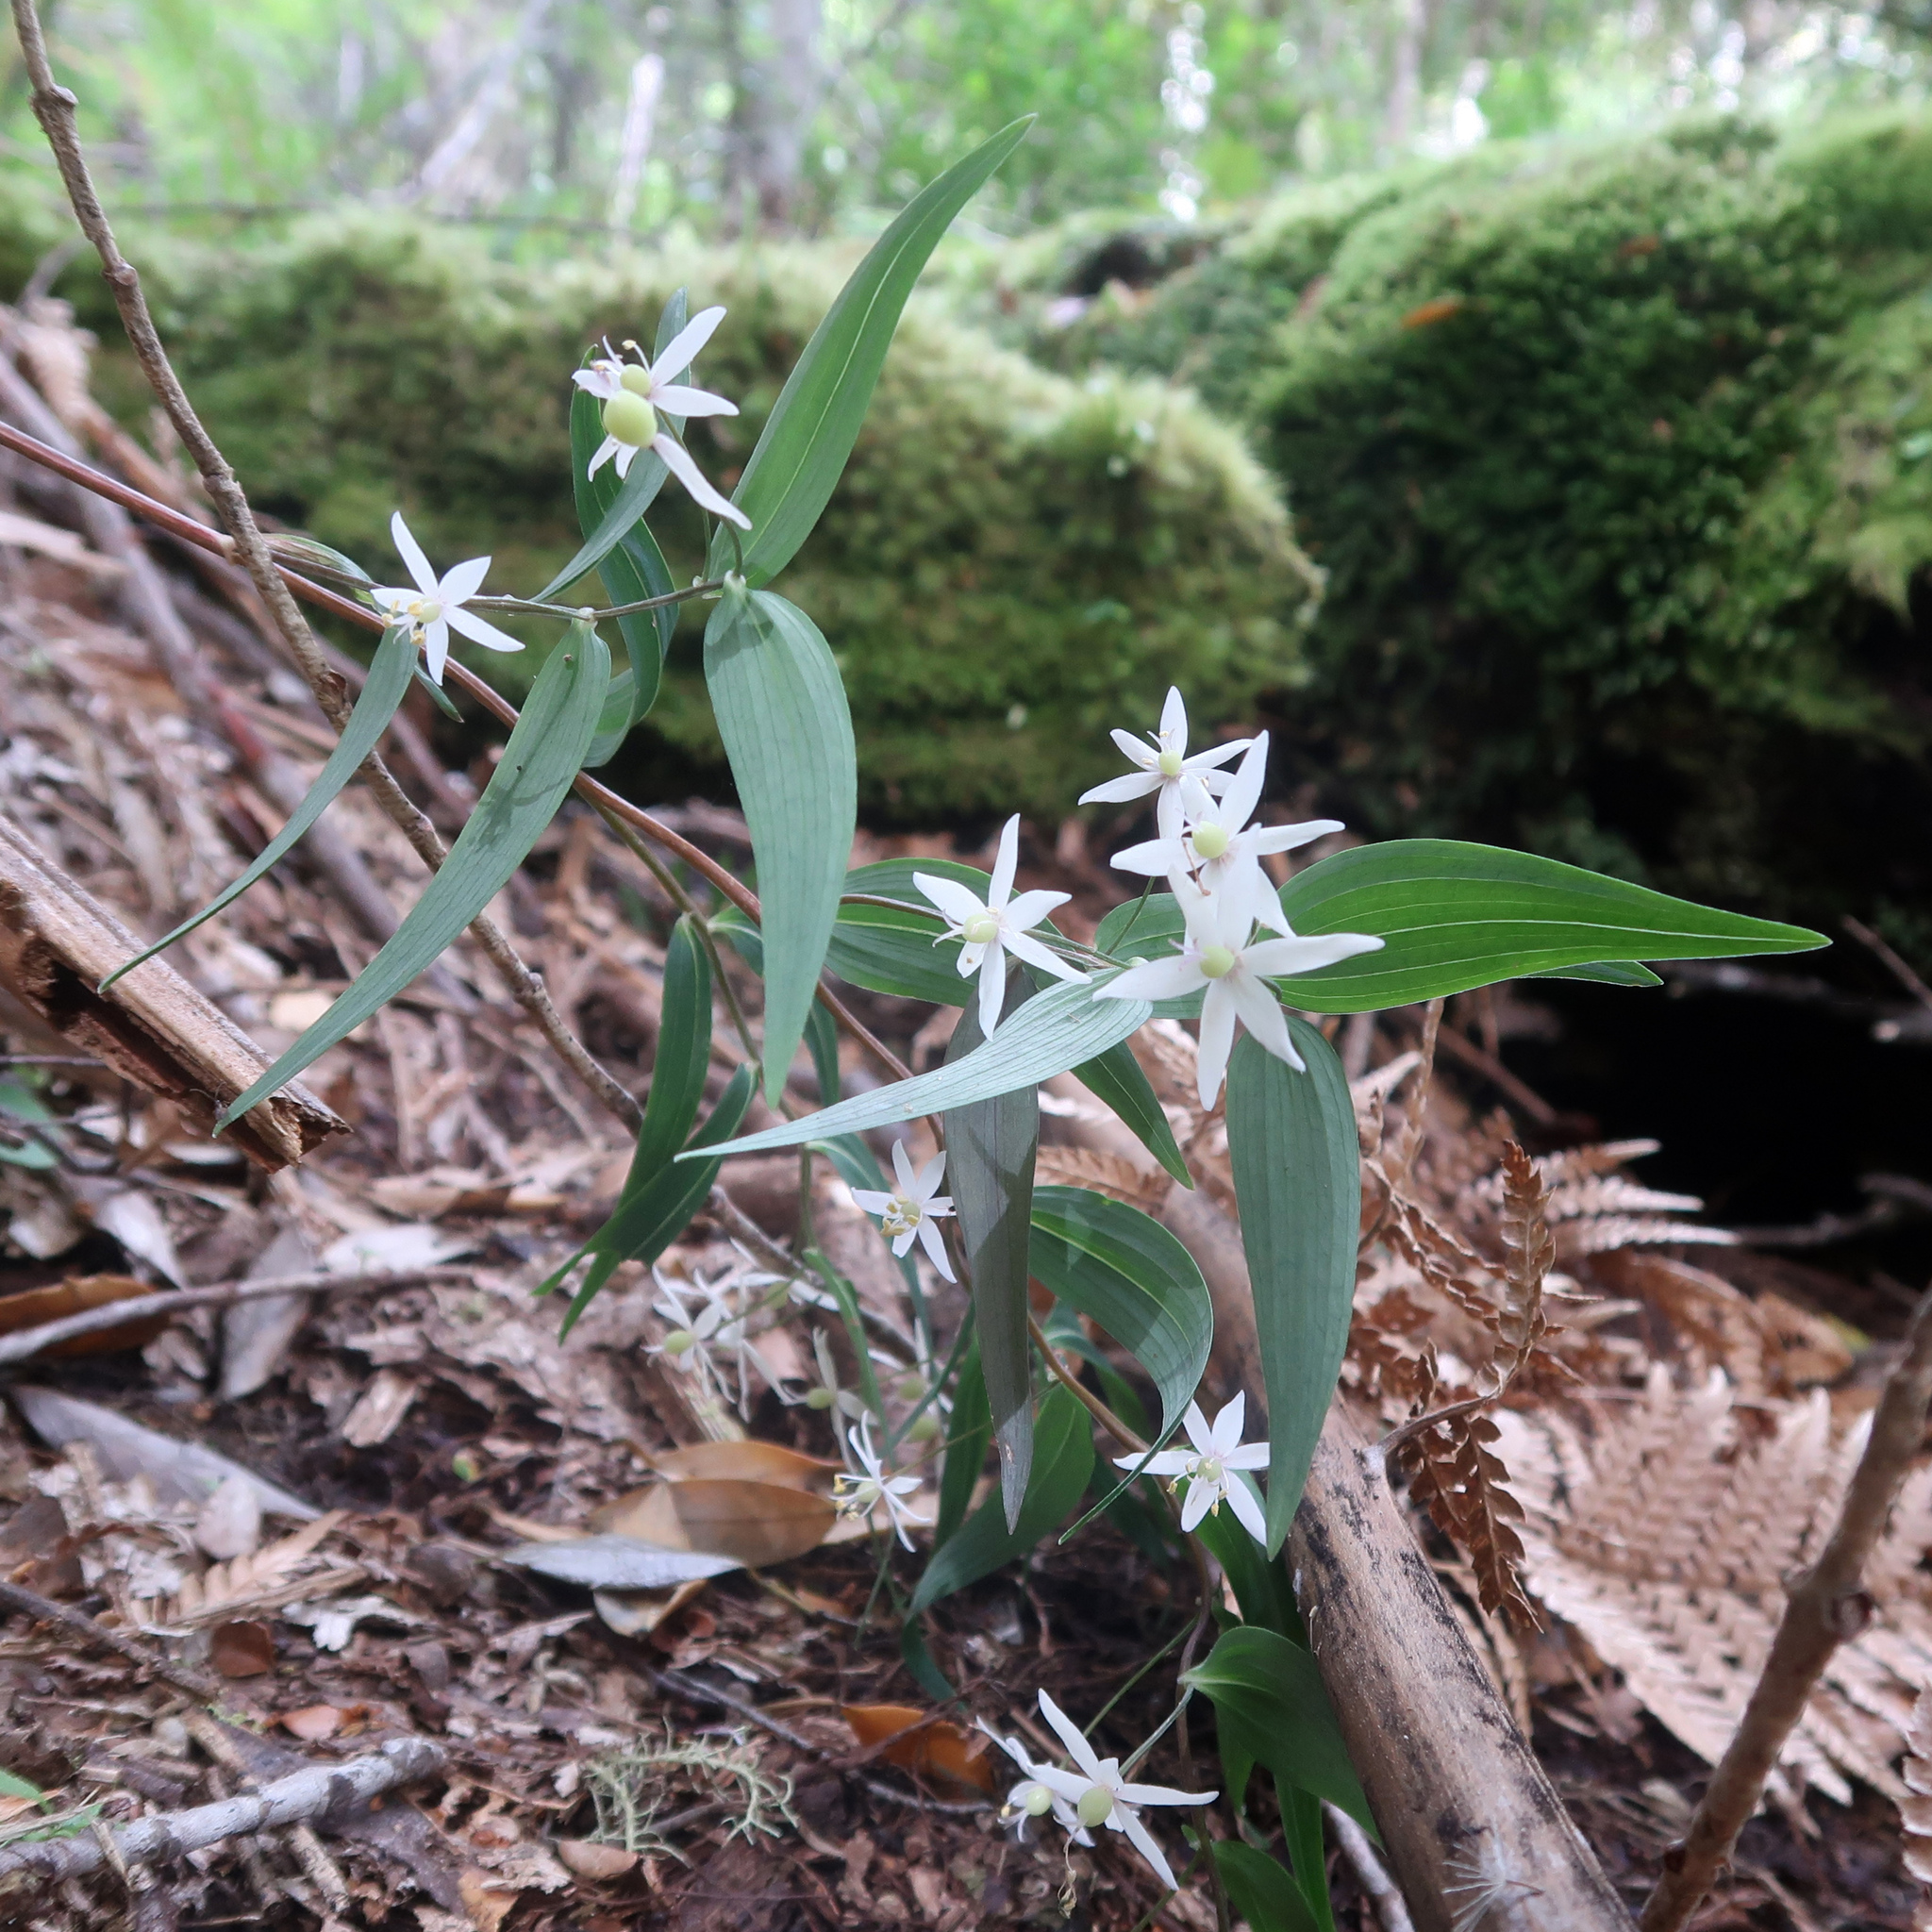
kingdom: Plantae
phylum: Tracheophyta
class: Liliopsida
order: Liliales
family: Alstroemeriaceae
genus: Drymophila
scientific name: Drymophila cyanocarpa
